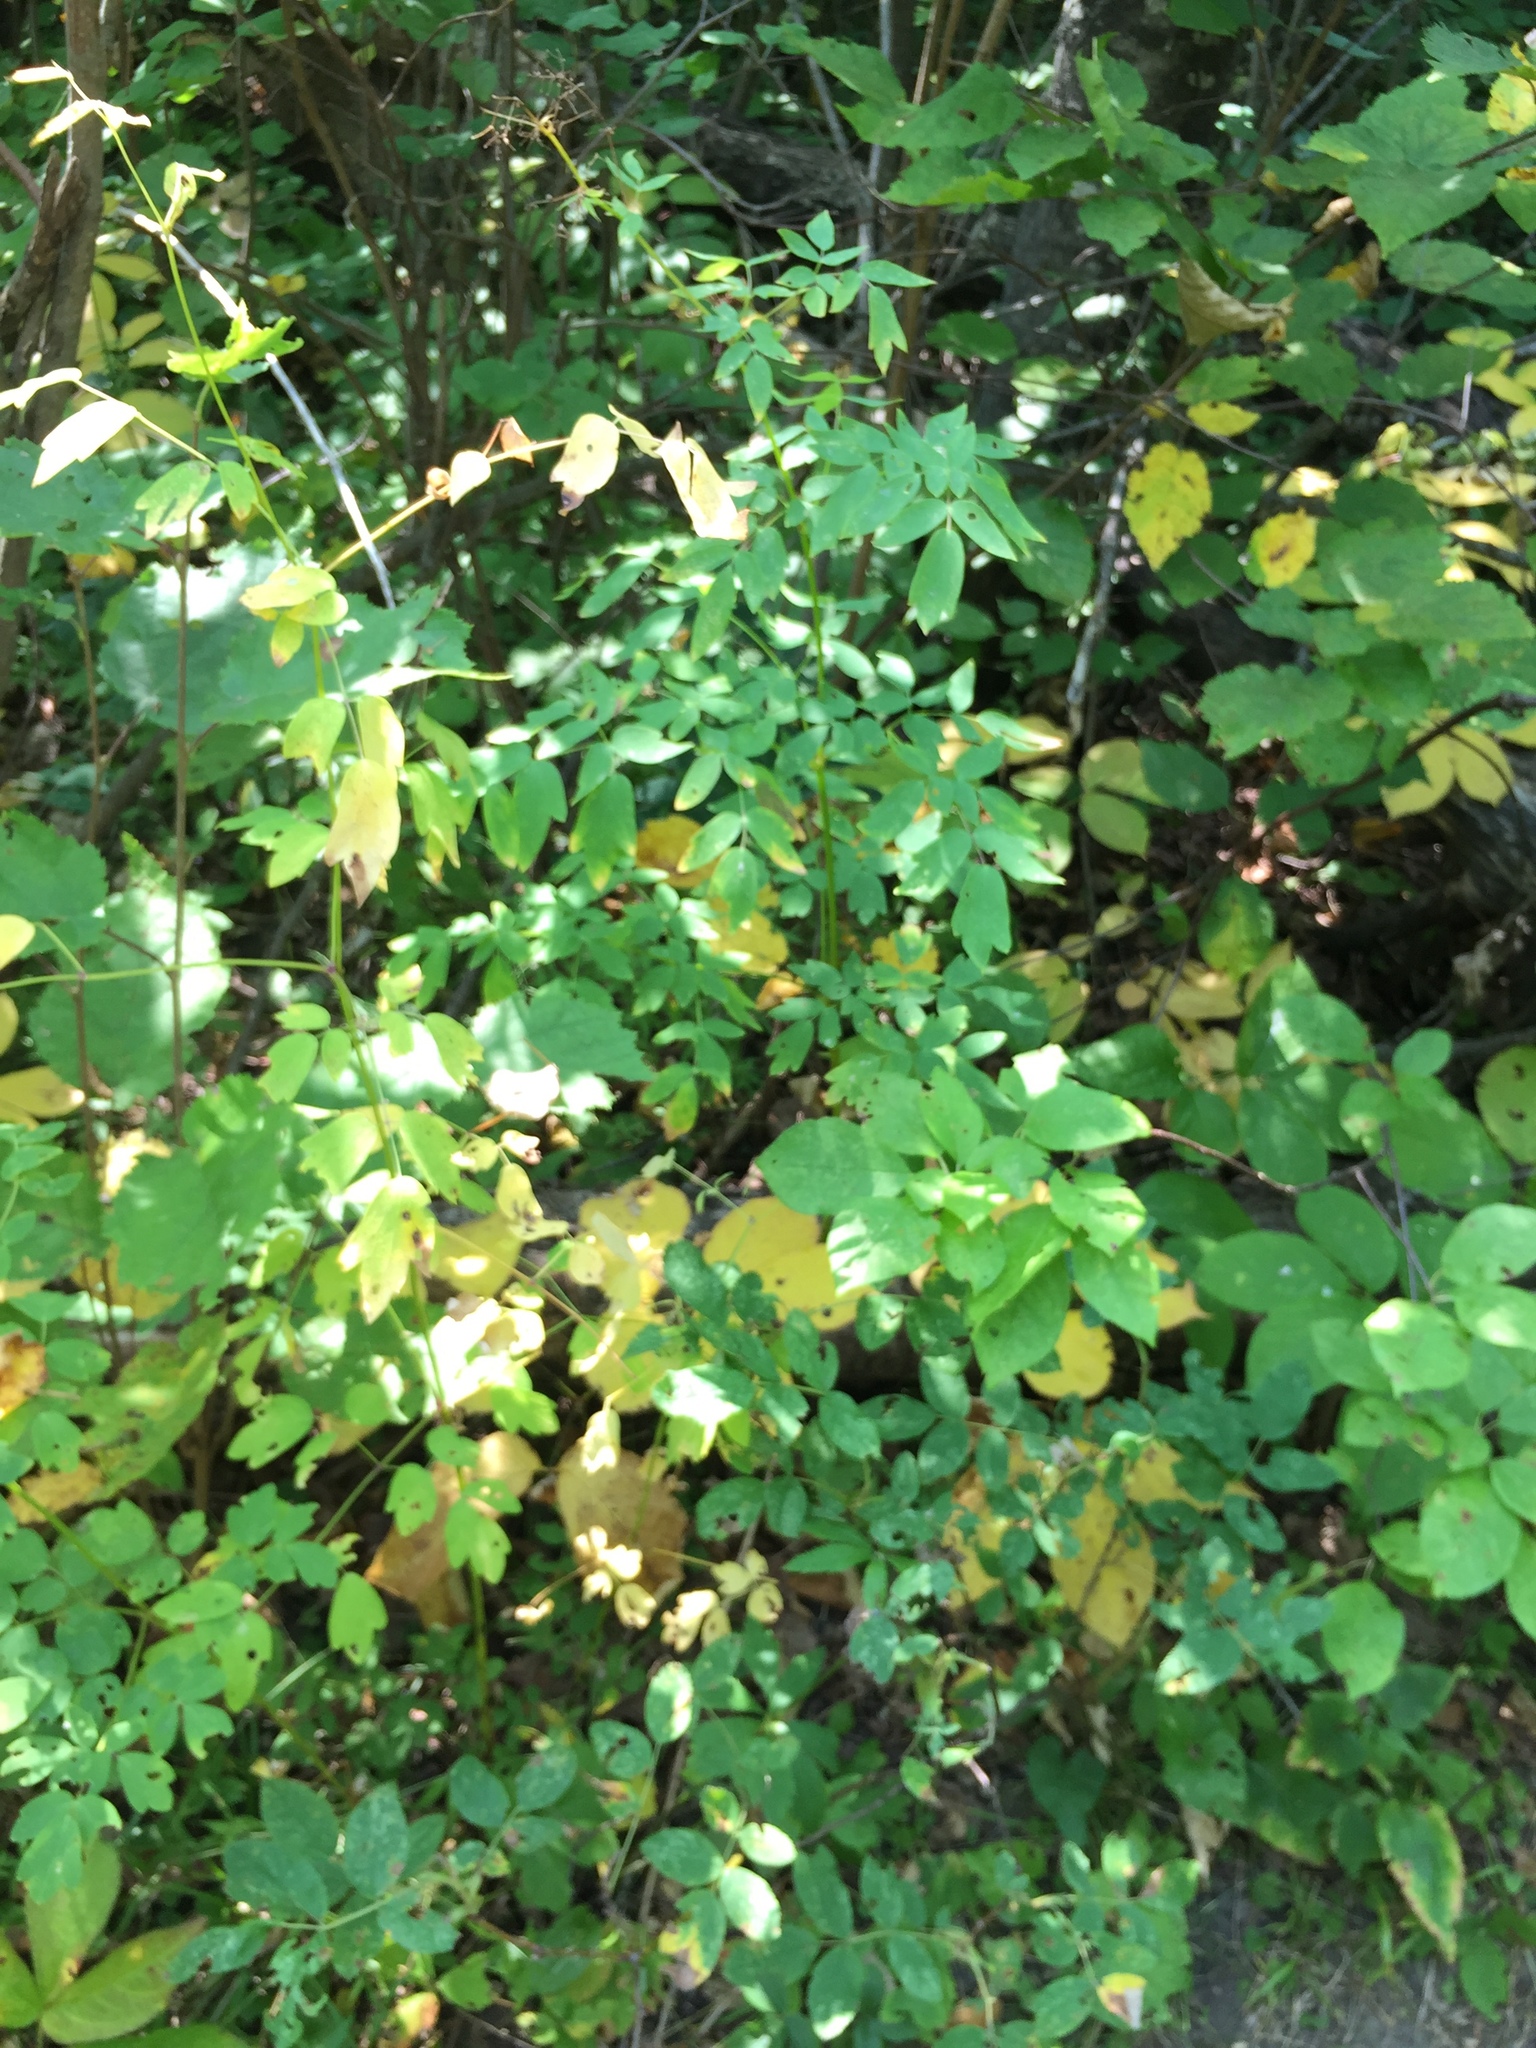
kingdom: Plantae
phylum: Tracheophyta
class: Magnoliopsida
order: Ranunculales
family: Ranunculaceae
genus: Thalictrum
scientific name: Thalictrum dasycarpum
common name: Purple meadow-rue
